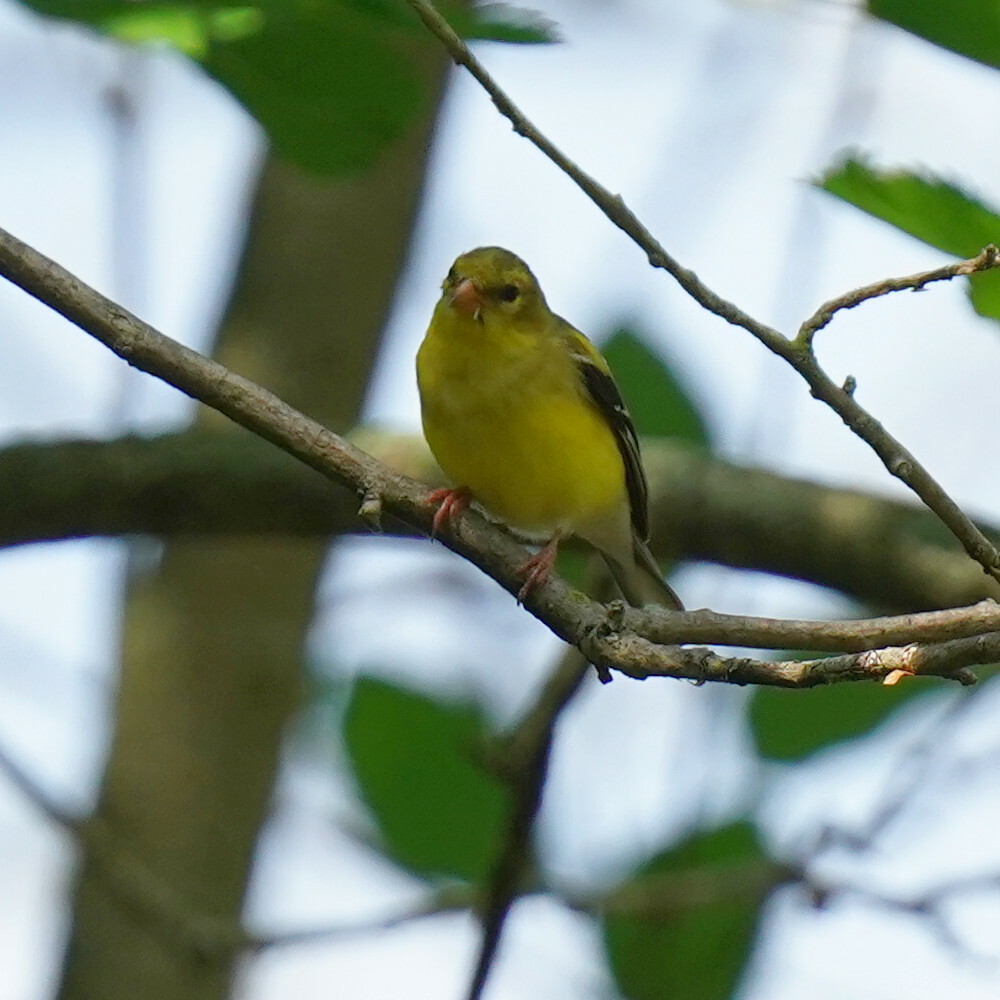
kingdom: Animalia
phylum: Chordata
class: Aves
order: Passeriformes
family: Fringillidae
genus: Spinus
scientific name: Spinus tristis
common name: American goldfinch
